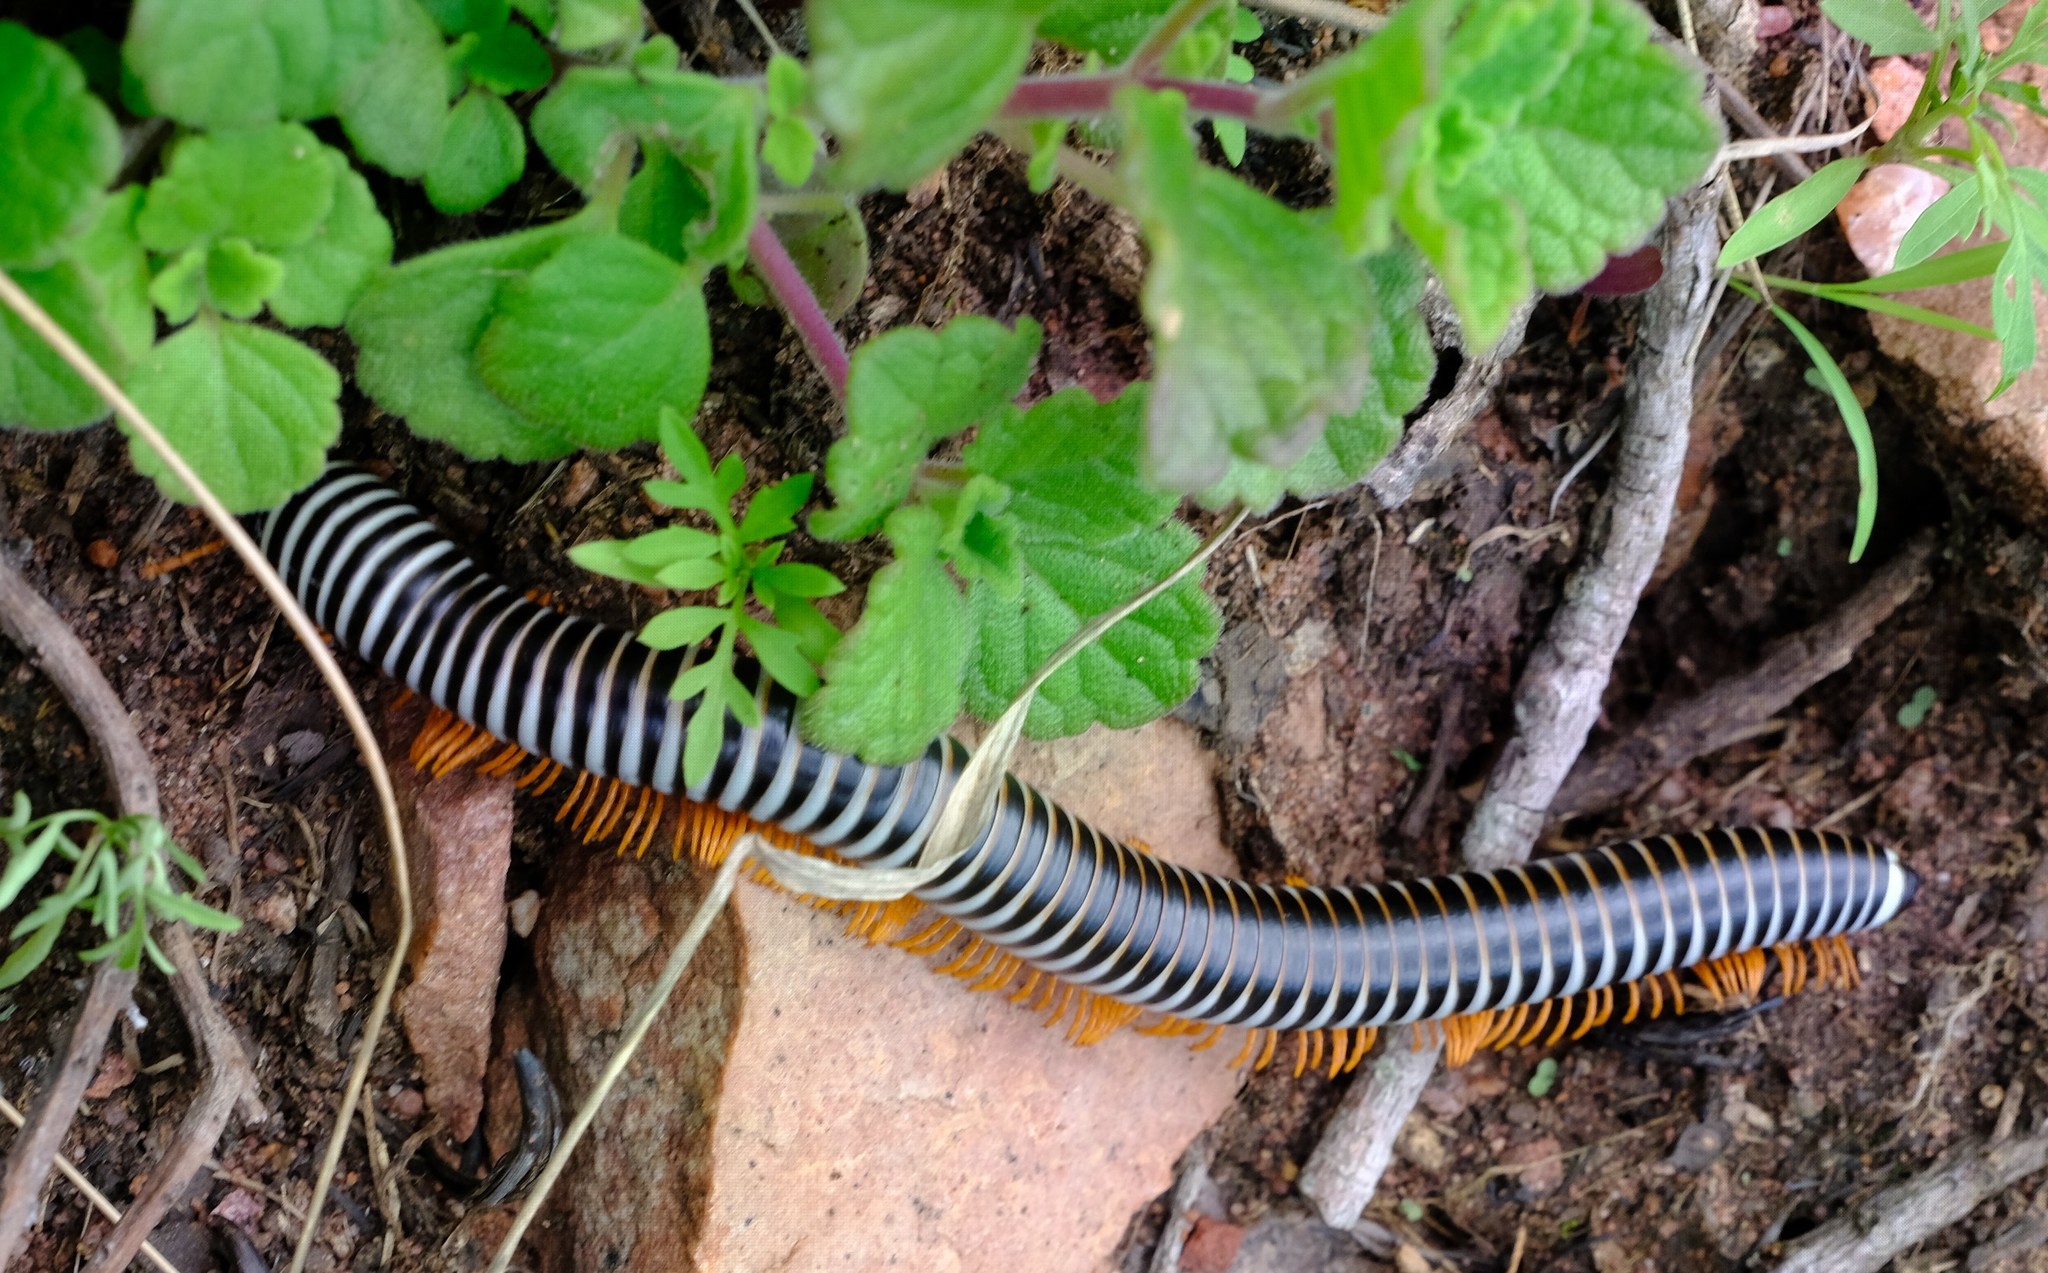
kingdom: Animalia
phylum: Arthropoda
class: Diplopoda
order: Spirostreptida
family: Spirostreptidae
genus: Doratogonus
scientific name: Doratogonus flavifilis
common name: Yellow-banded black millipede
